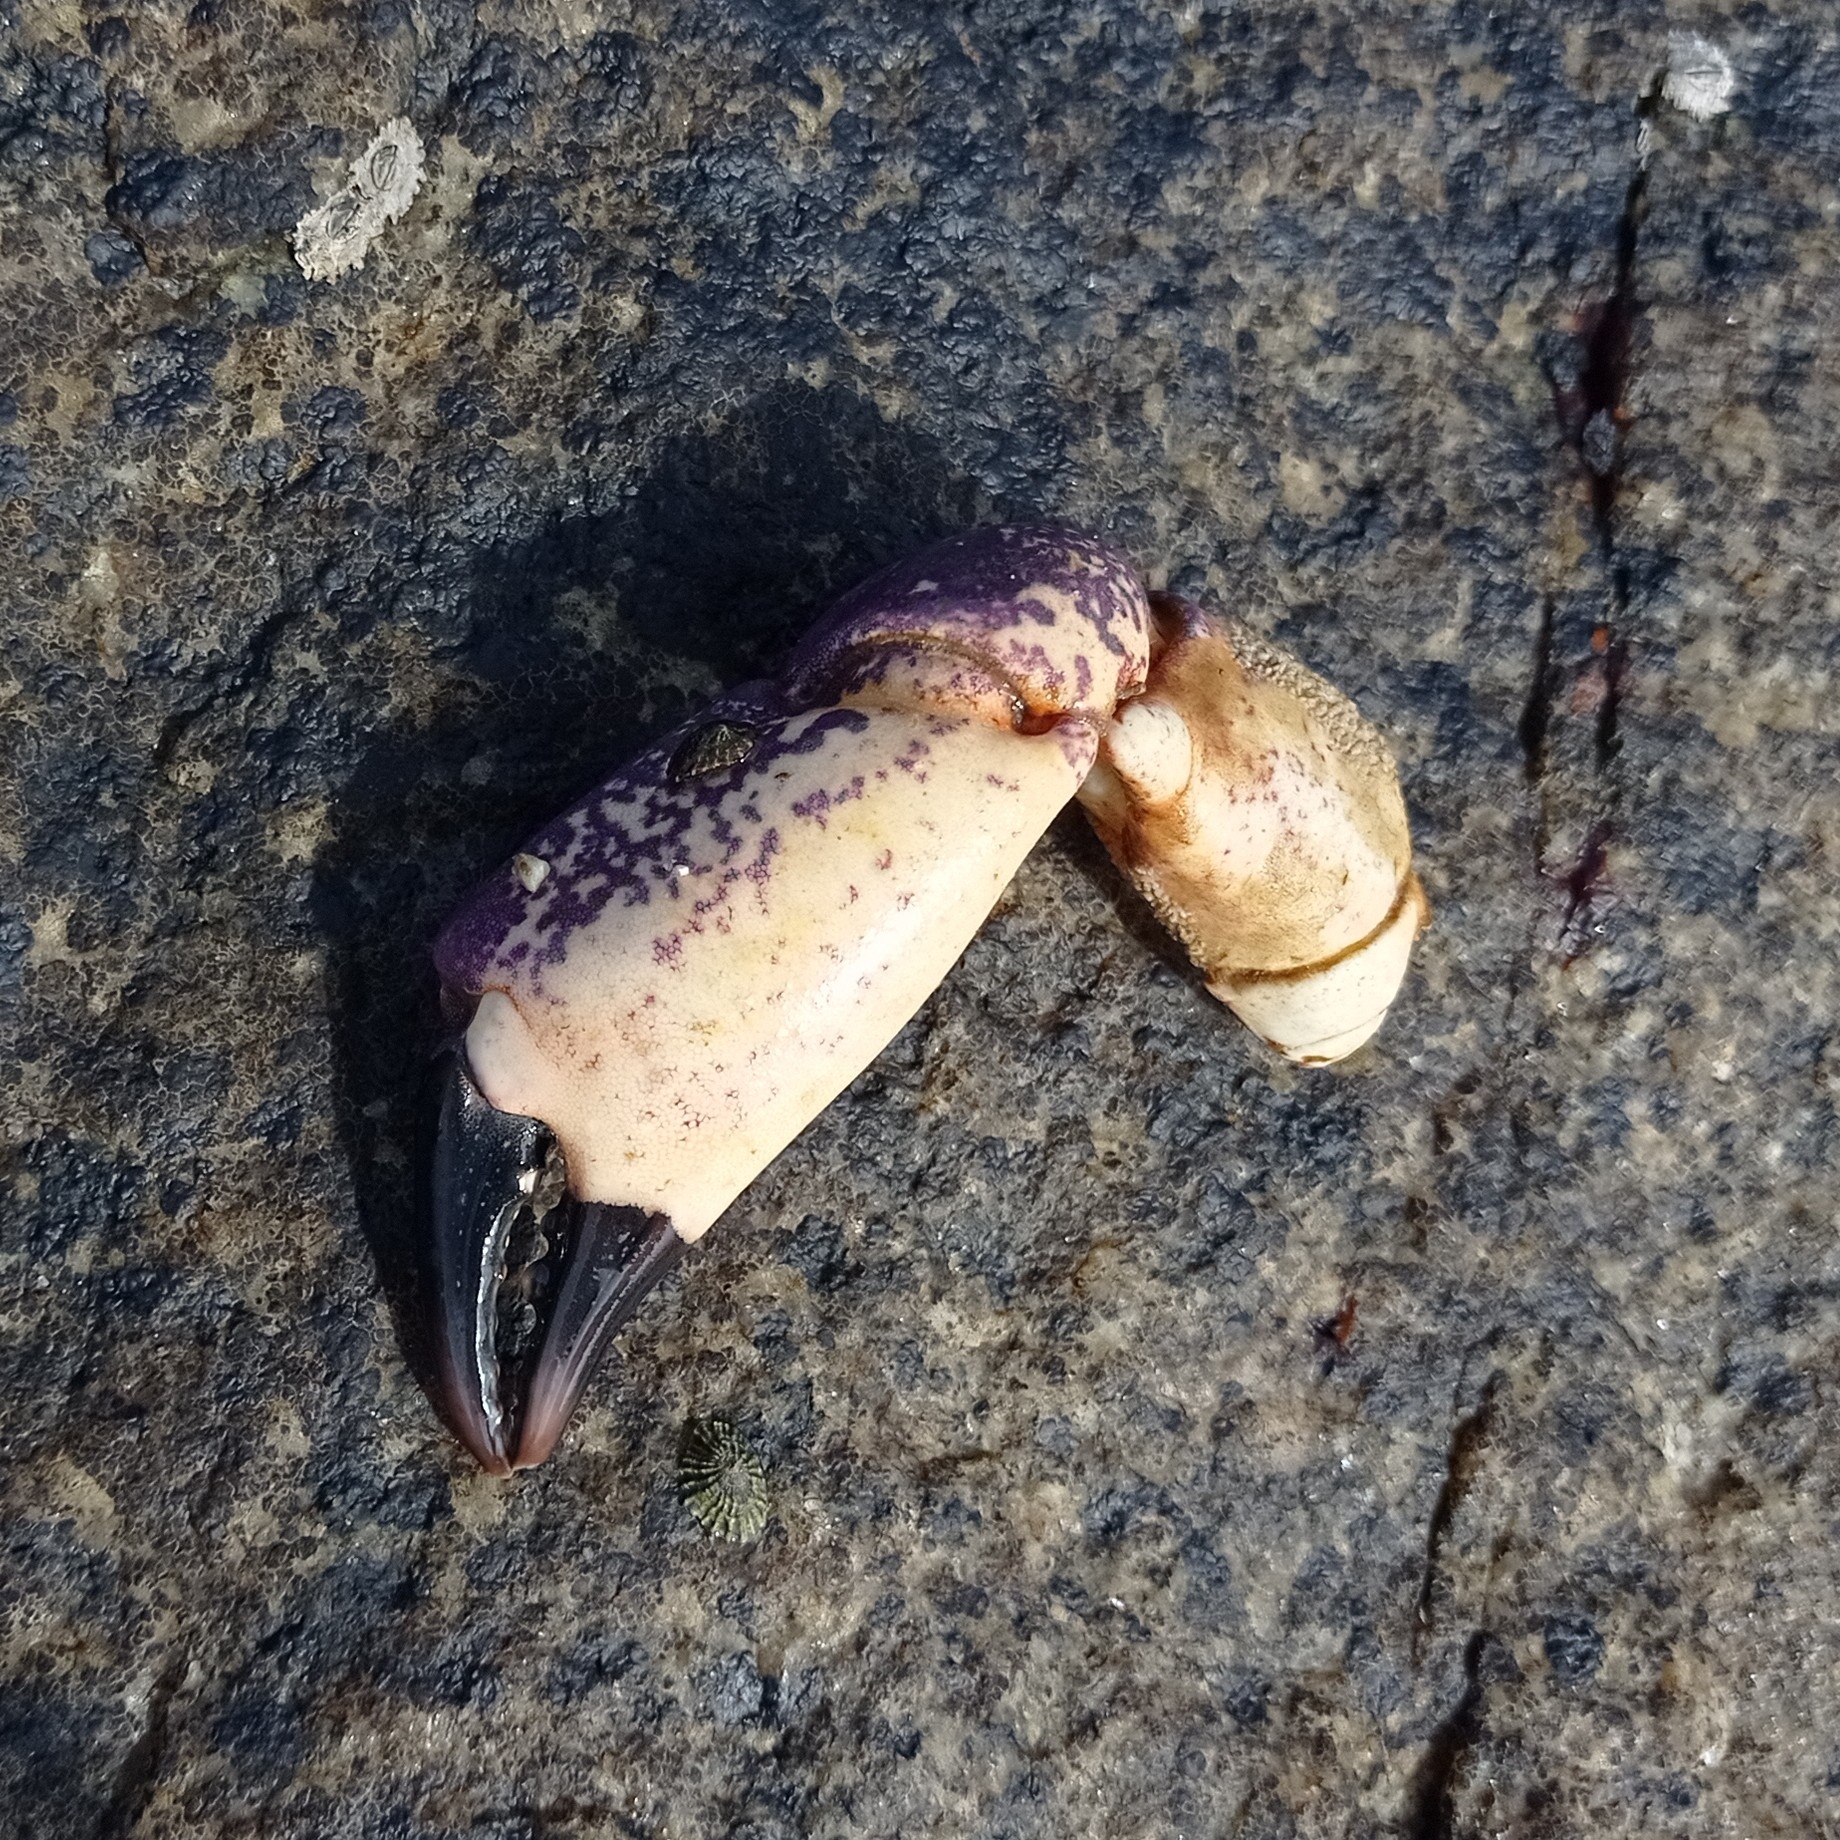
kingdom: Animalia
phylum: Arthropoda
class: Malacostraca
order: Decapoda
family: Platyxanthidae
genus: Homalaspis
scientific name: Homalaspis plana
